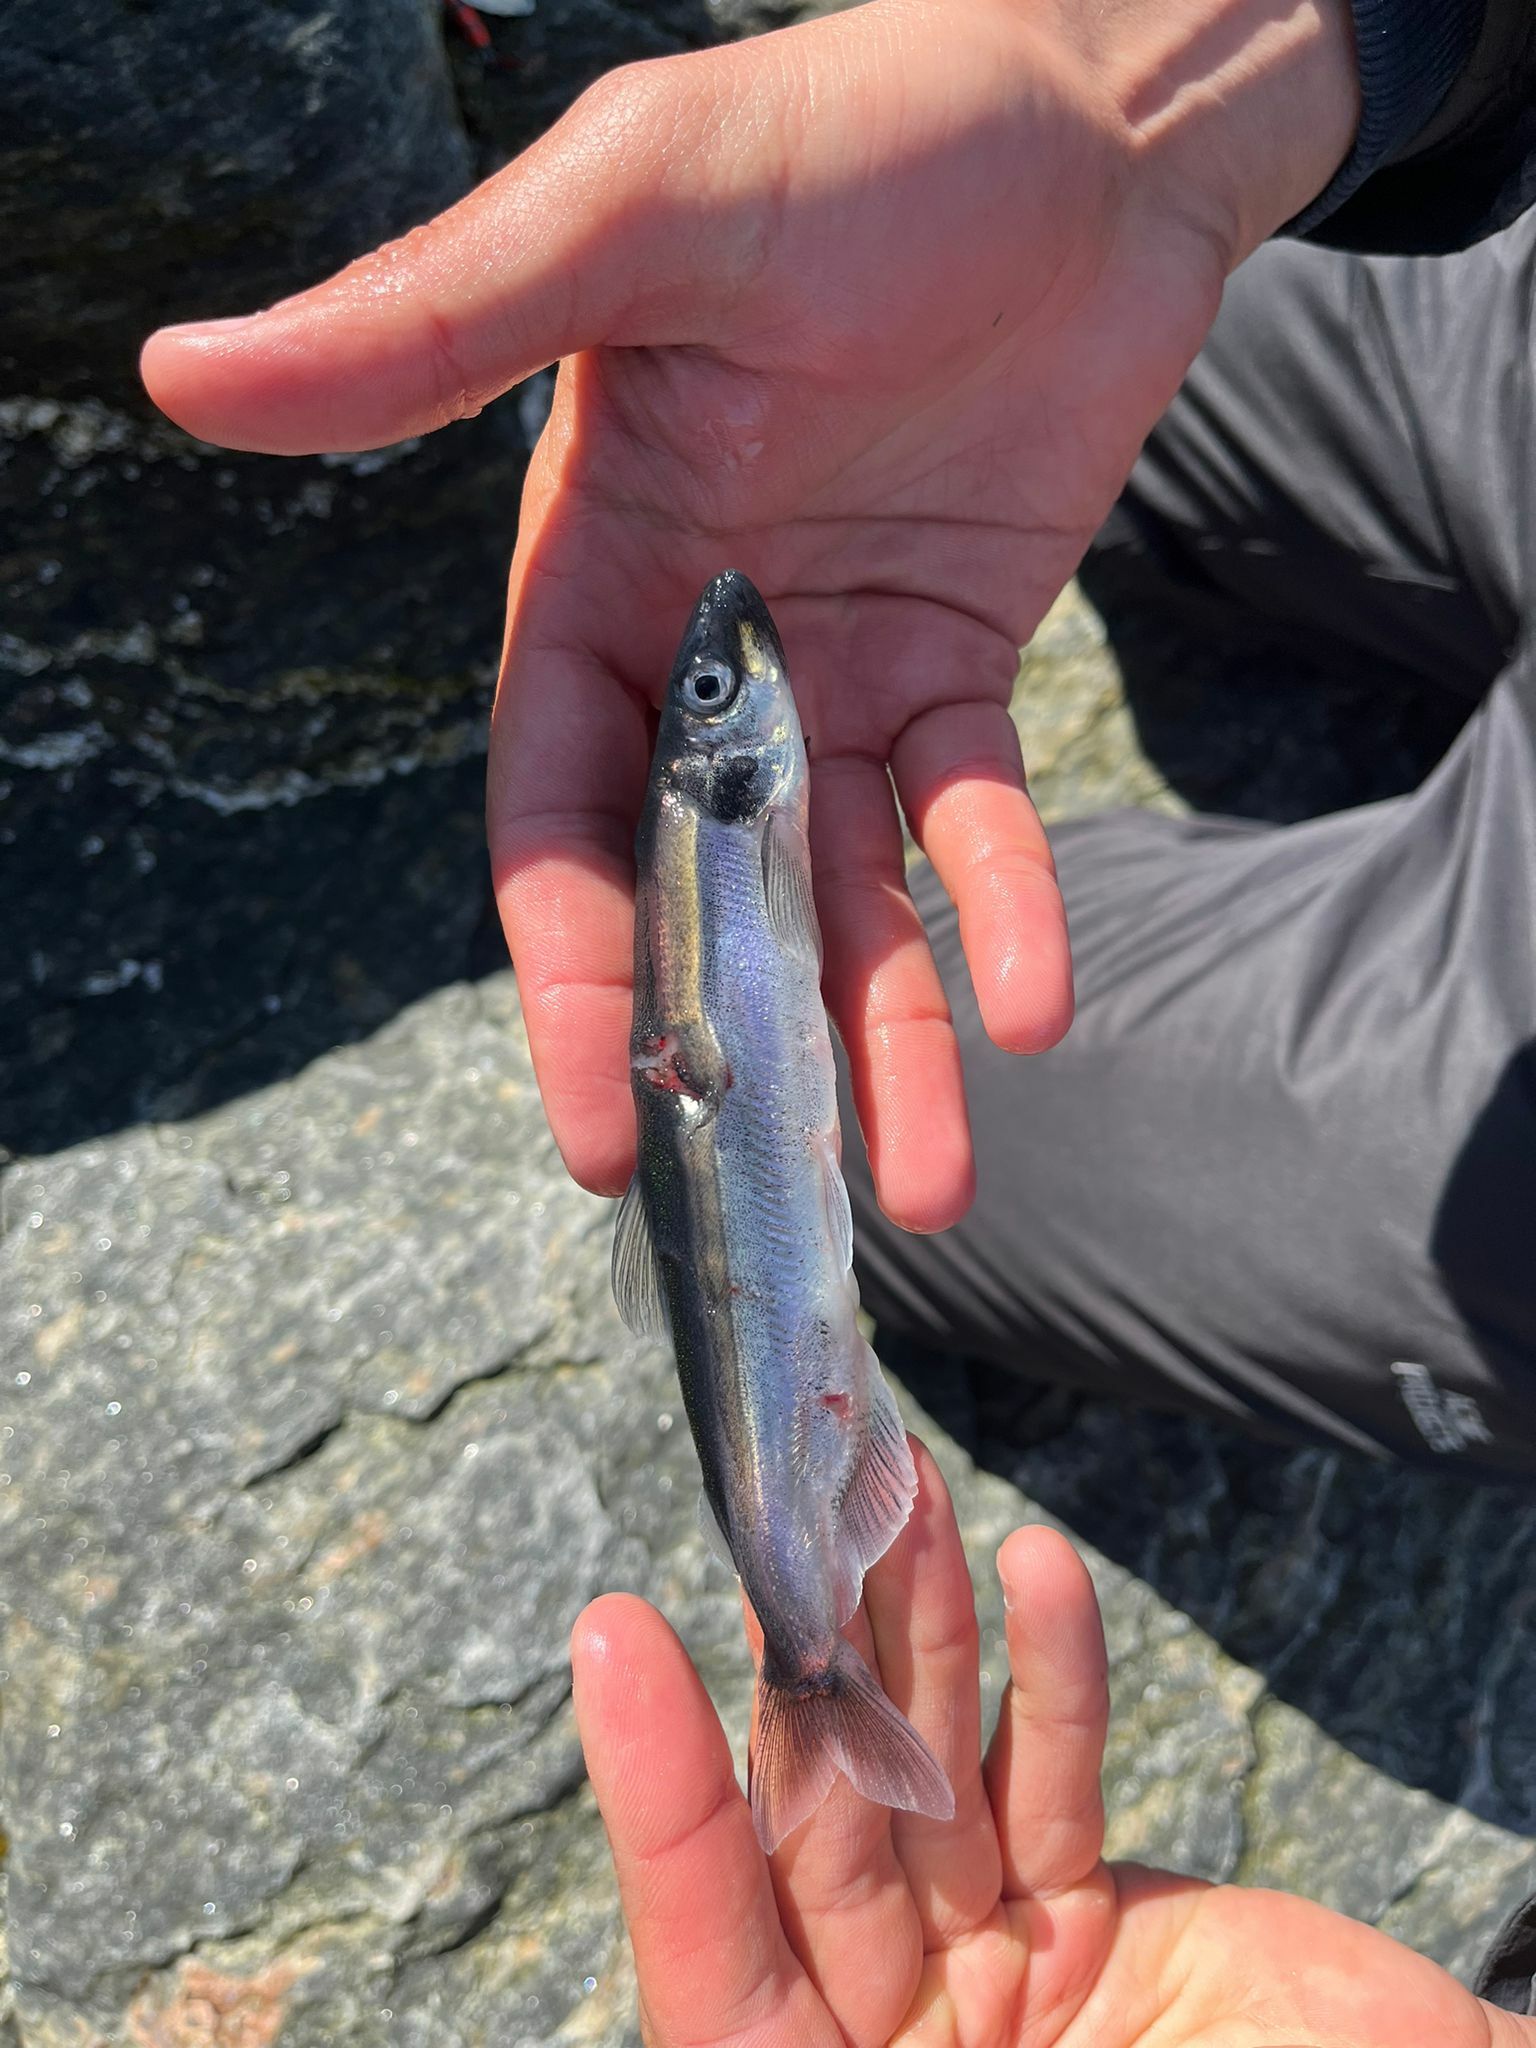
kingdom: Animalia
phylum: Chordata
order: Osmeriformes
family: Osmeridae
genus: Mallotus
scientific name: Mallotus villosus
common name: Capelin
